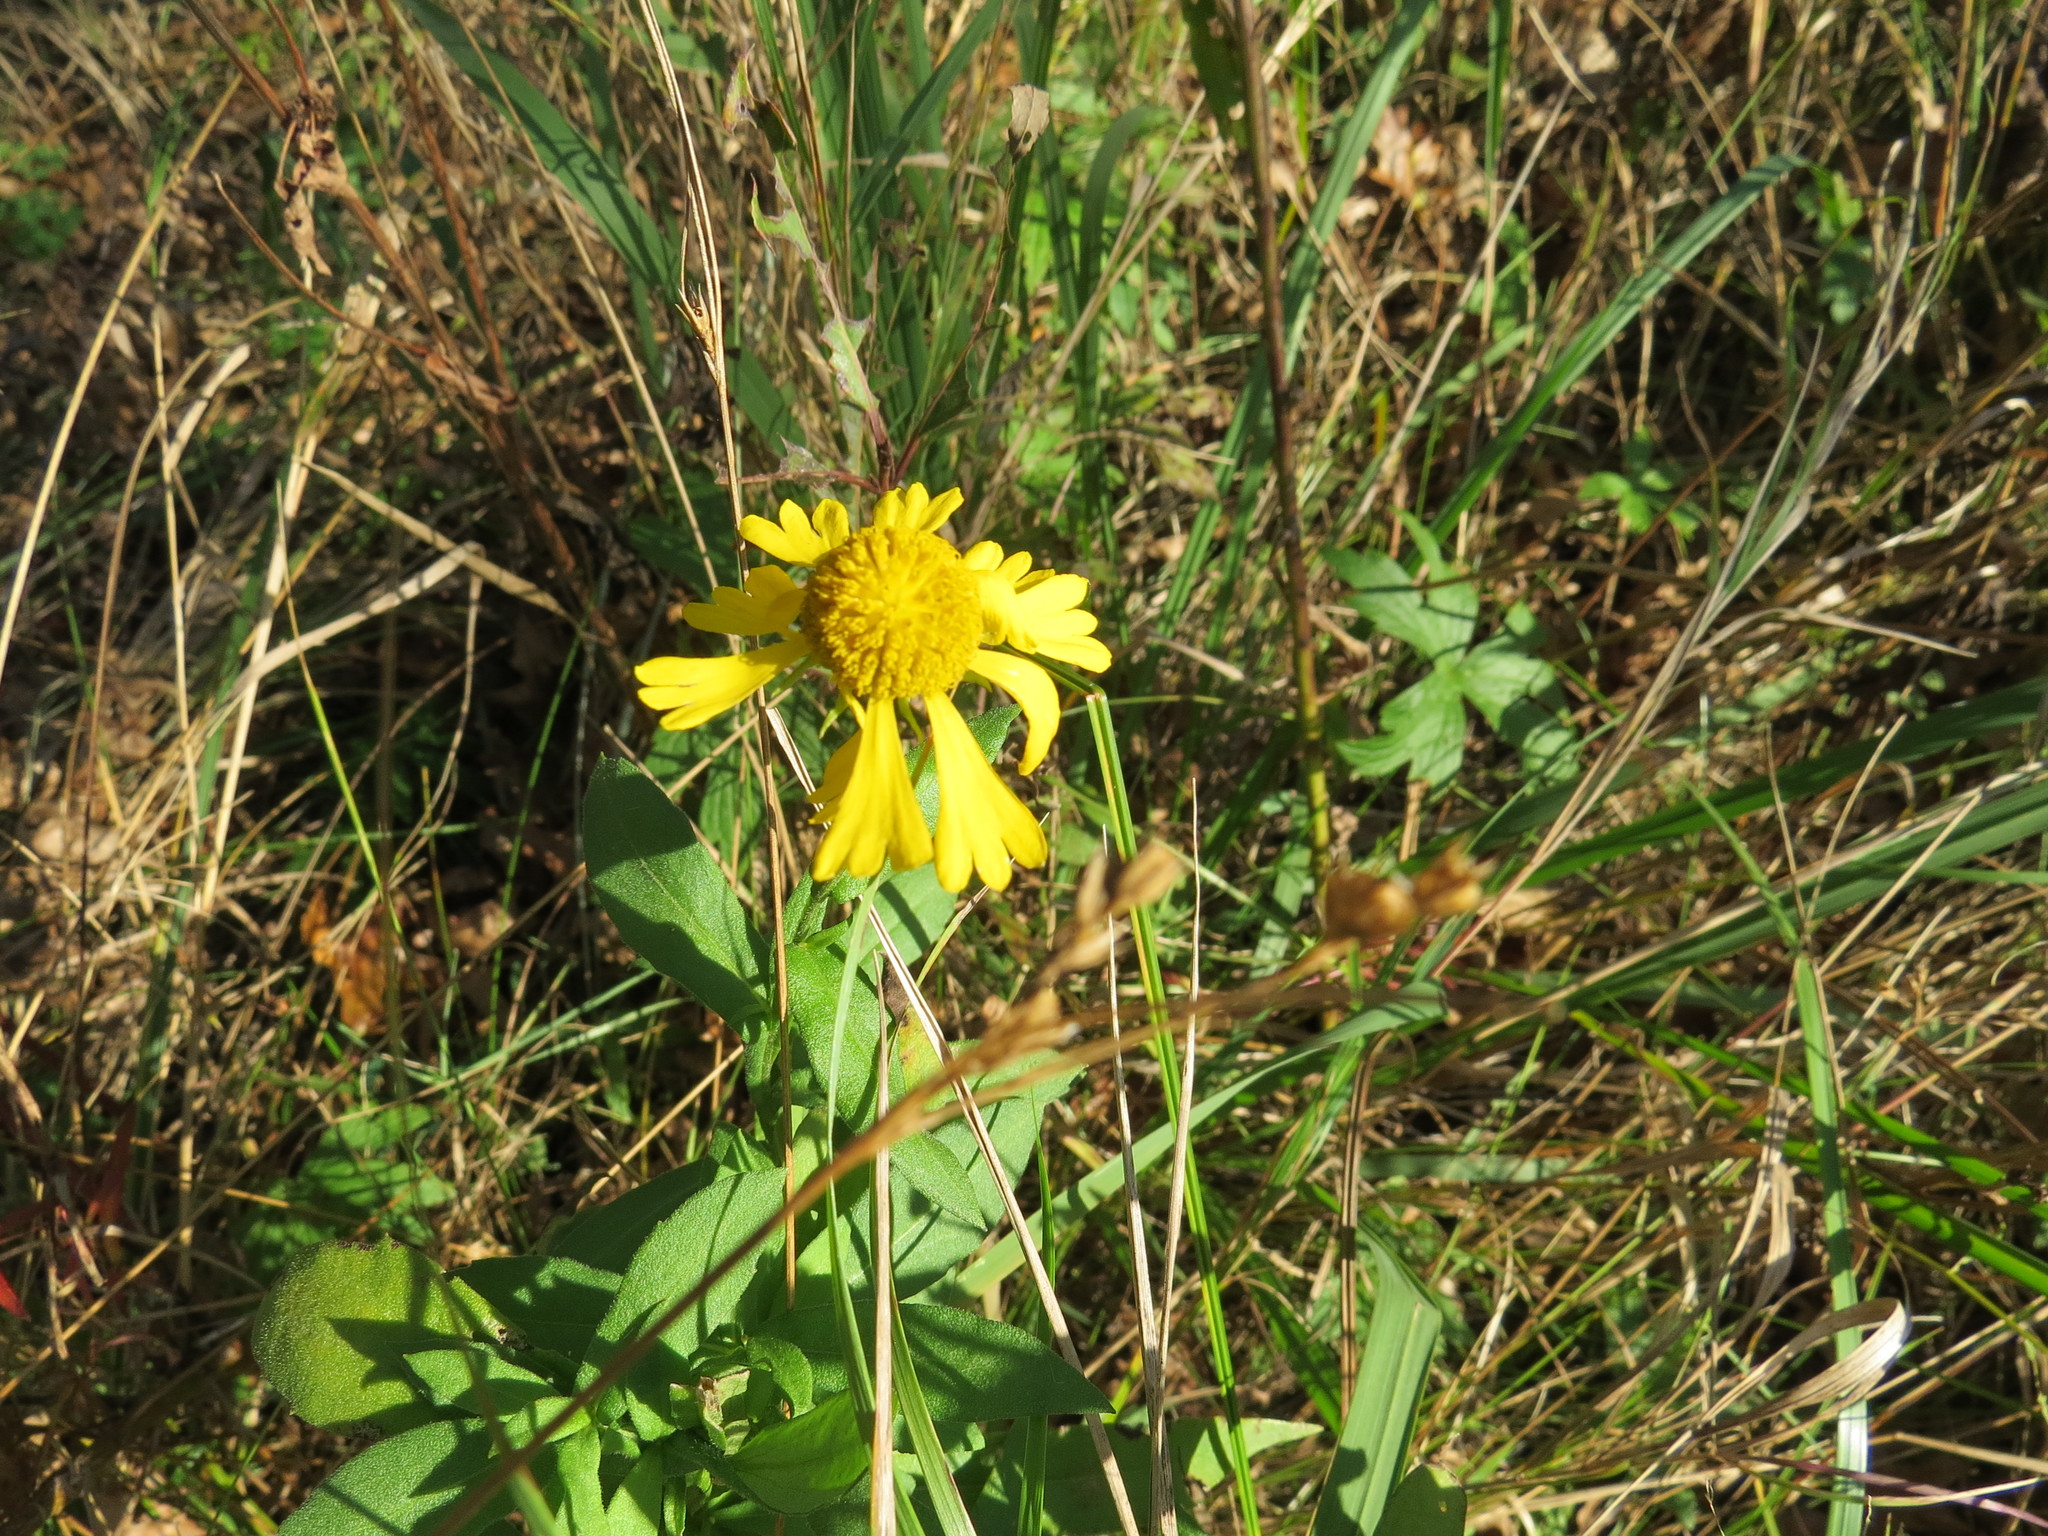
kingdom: Plantae
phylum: Tracheophyta
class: Magnoliopsida
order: Asterales
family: Asteraceae
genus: Helenium
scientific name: Helenium autumnale
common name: Sneezeweed
